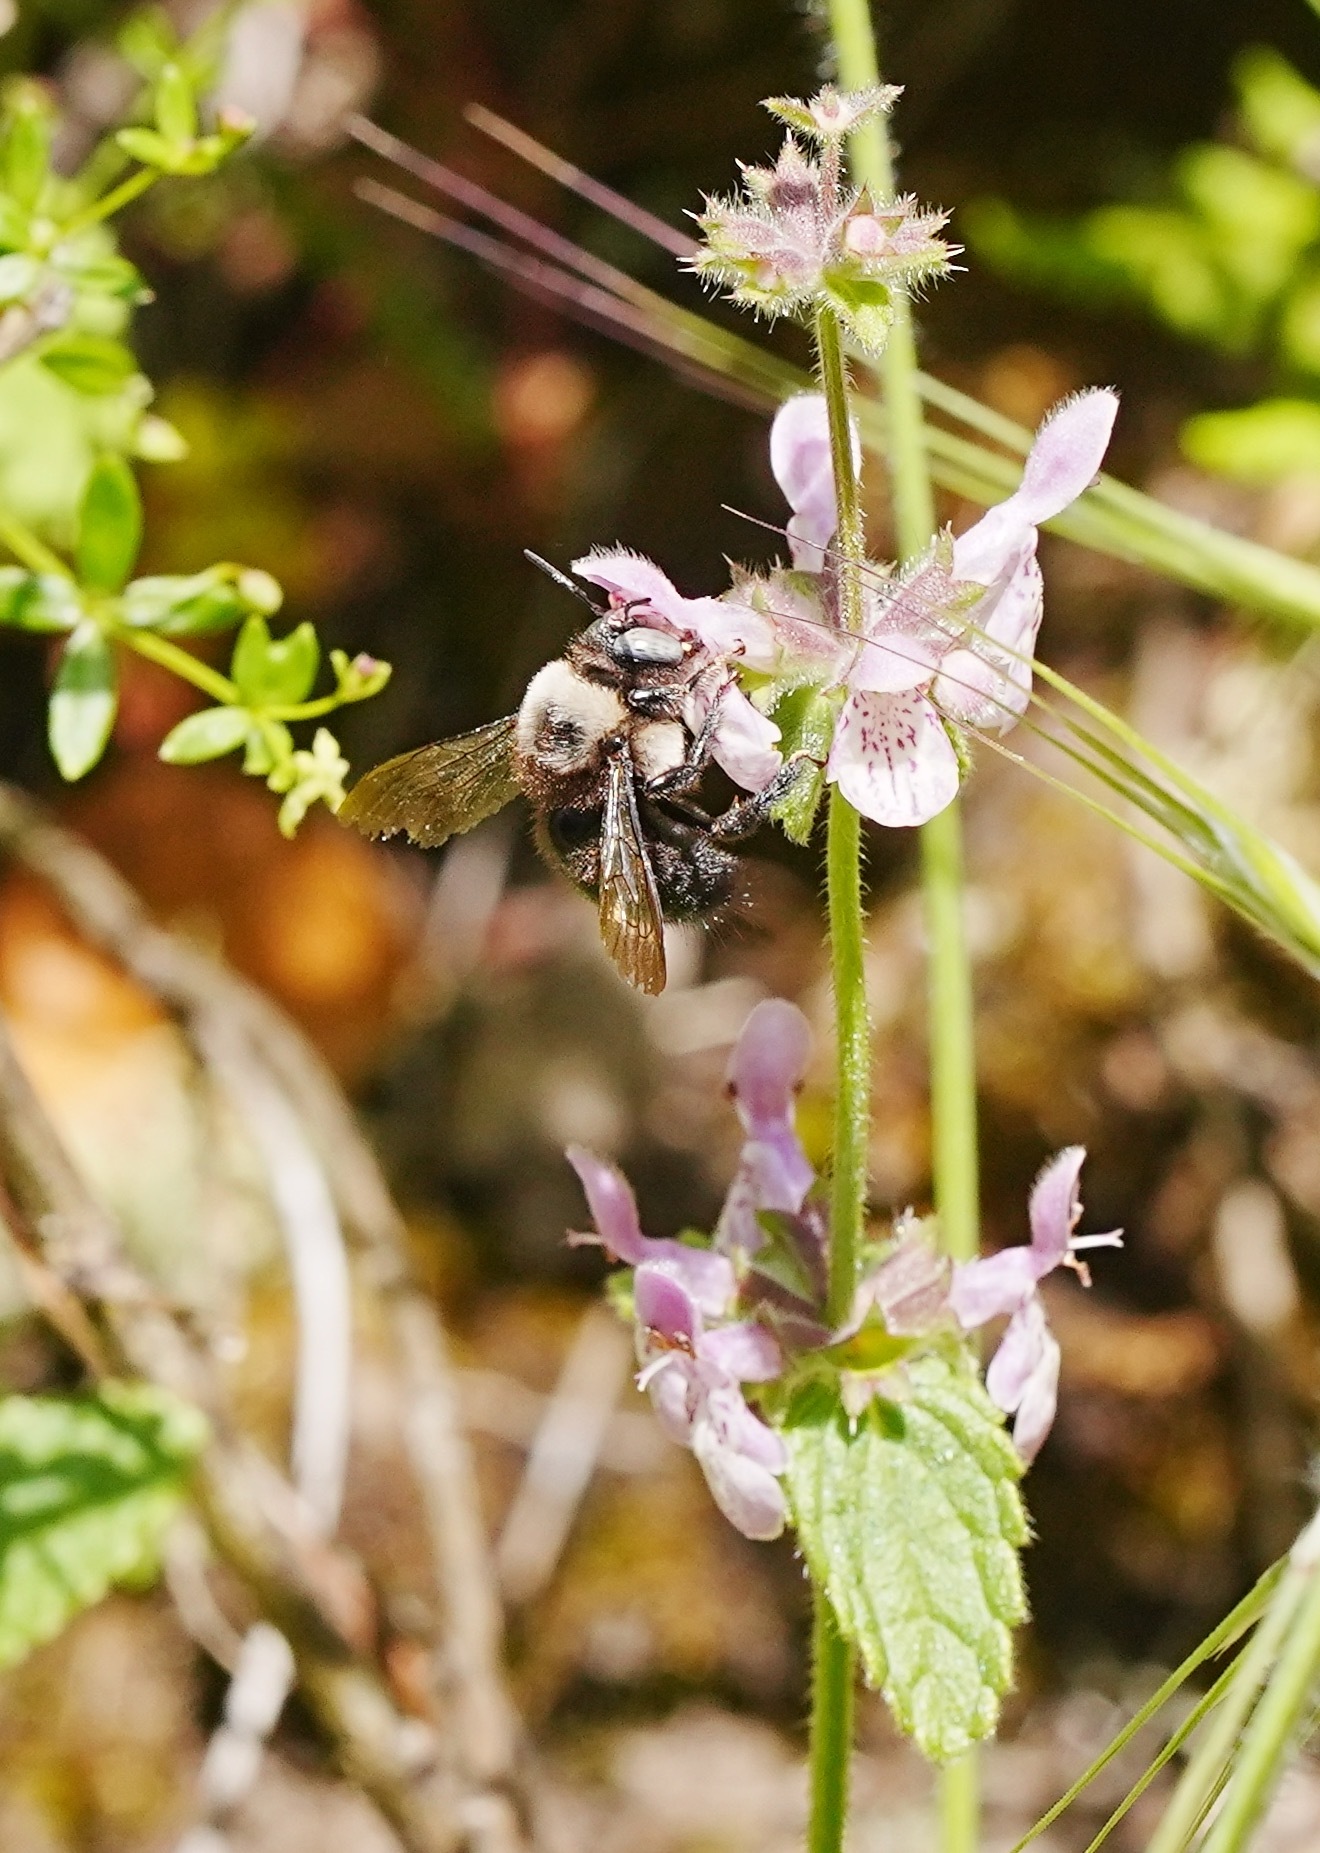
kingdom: Animalia
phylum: Arthropoda
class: Insecta
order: Hymenoptera
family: Apidae
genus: Xylocopa
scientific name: Xylocopa tabaniformis
